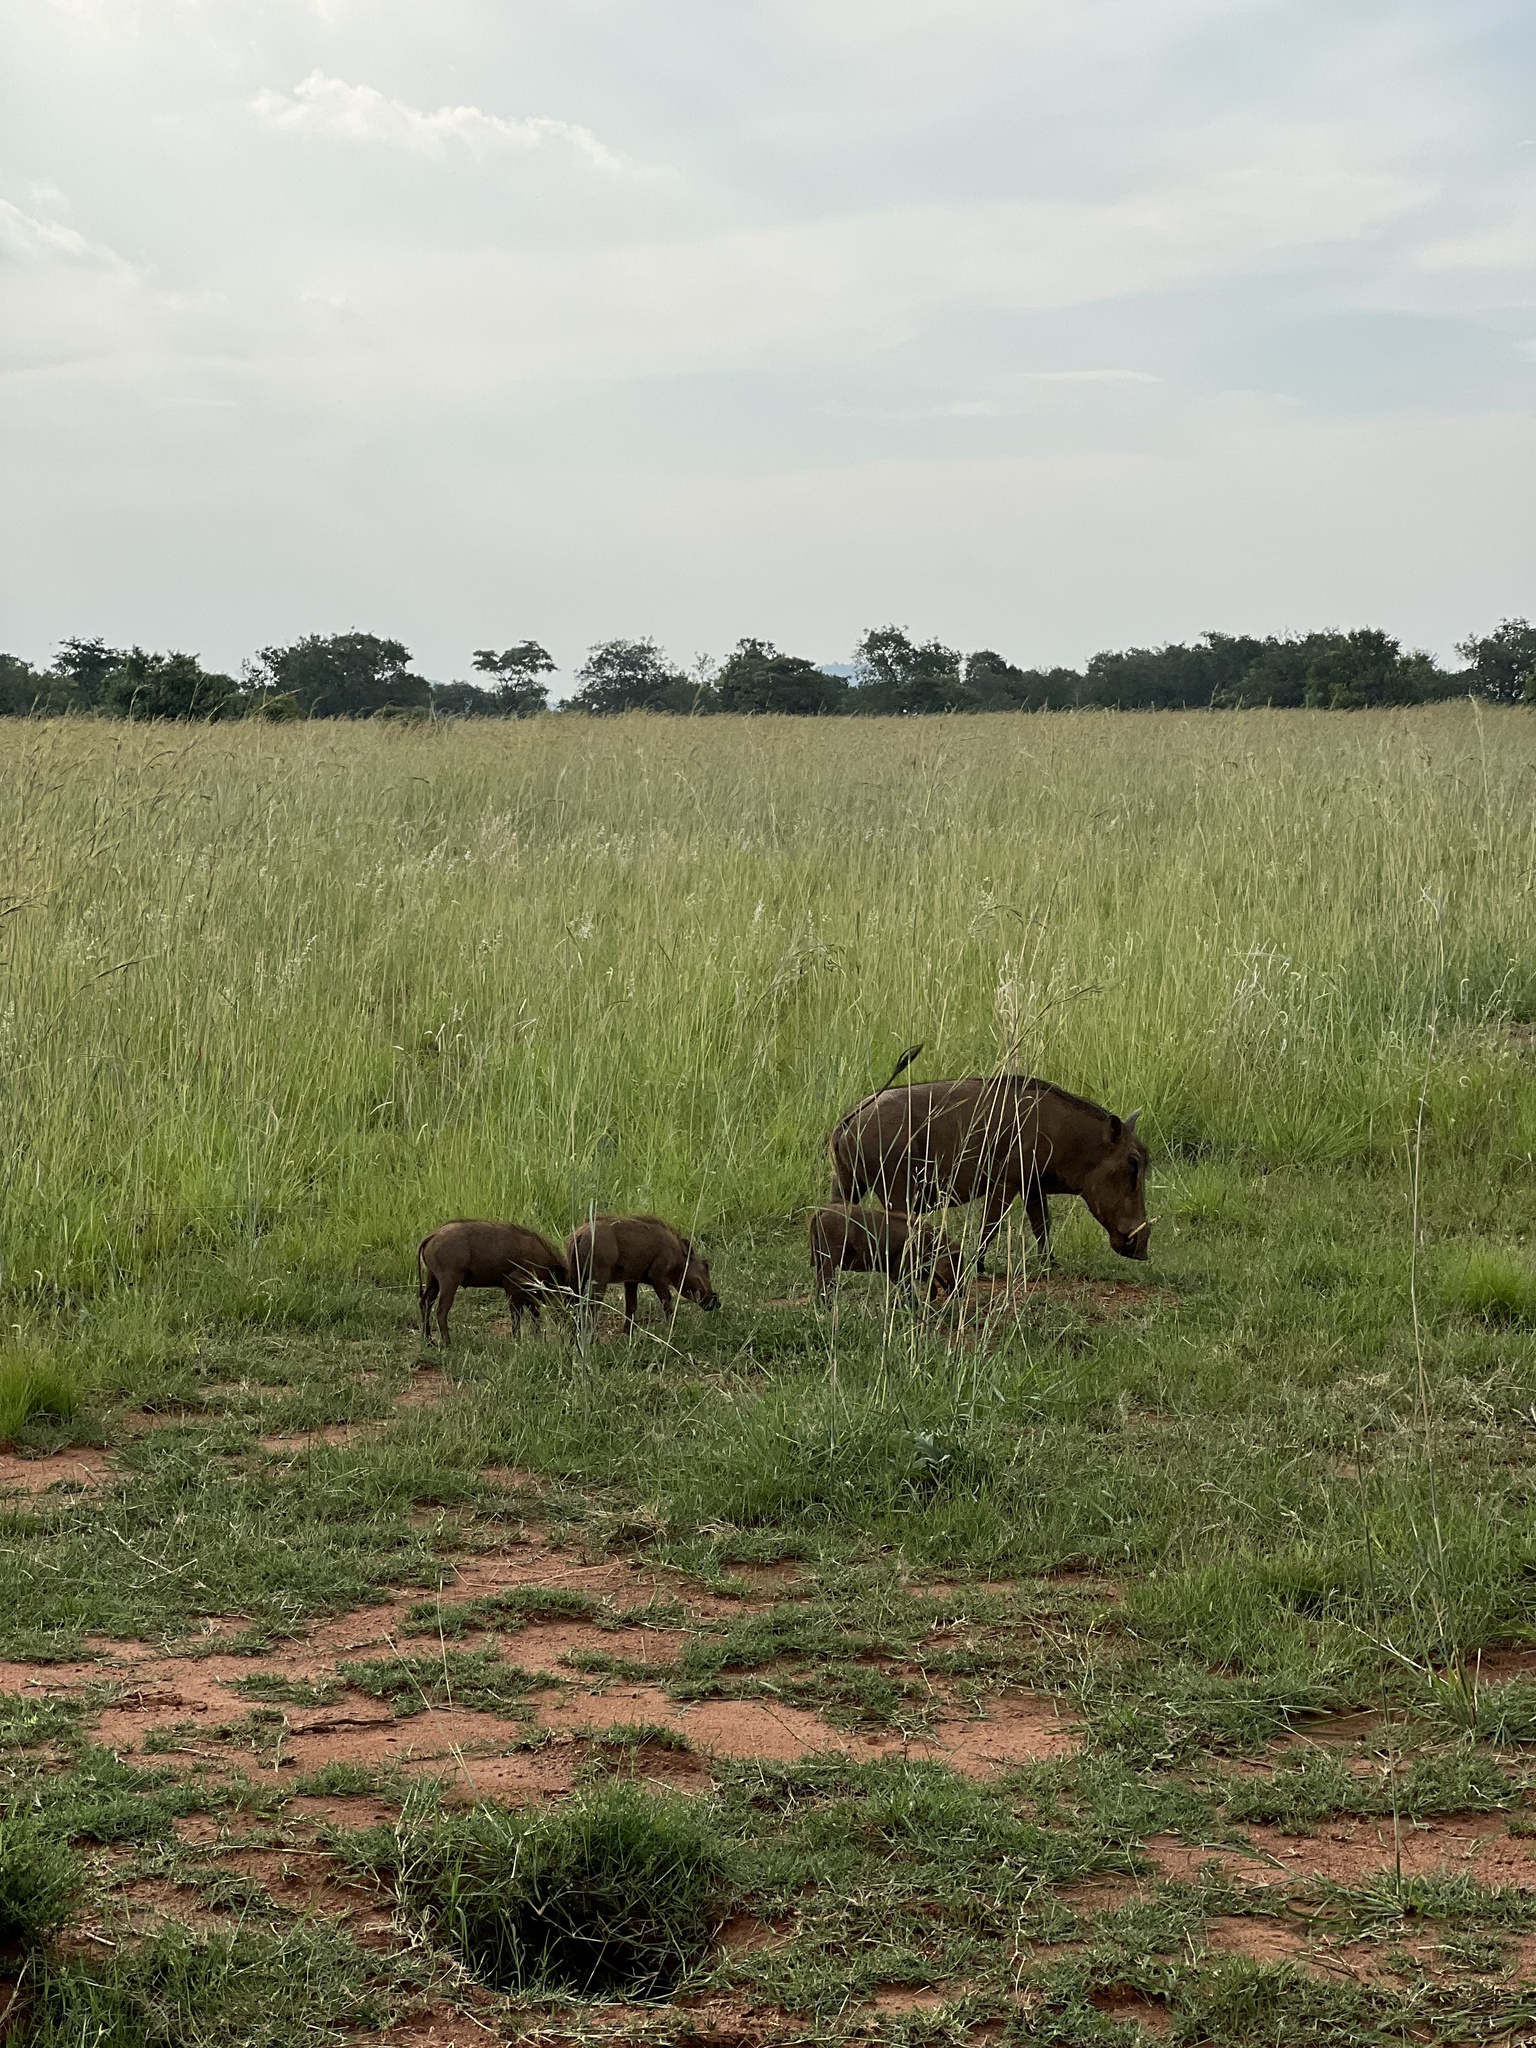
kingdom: Animalia
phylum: Chordata
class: Mammalia
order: Artiodactyla
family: Suidae
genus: Phacochoerus
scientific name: Phacochoerus africanus
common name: Common warthog
